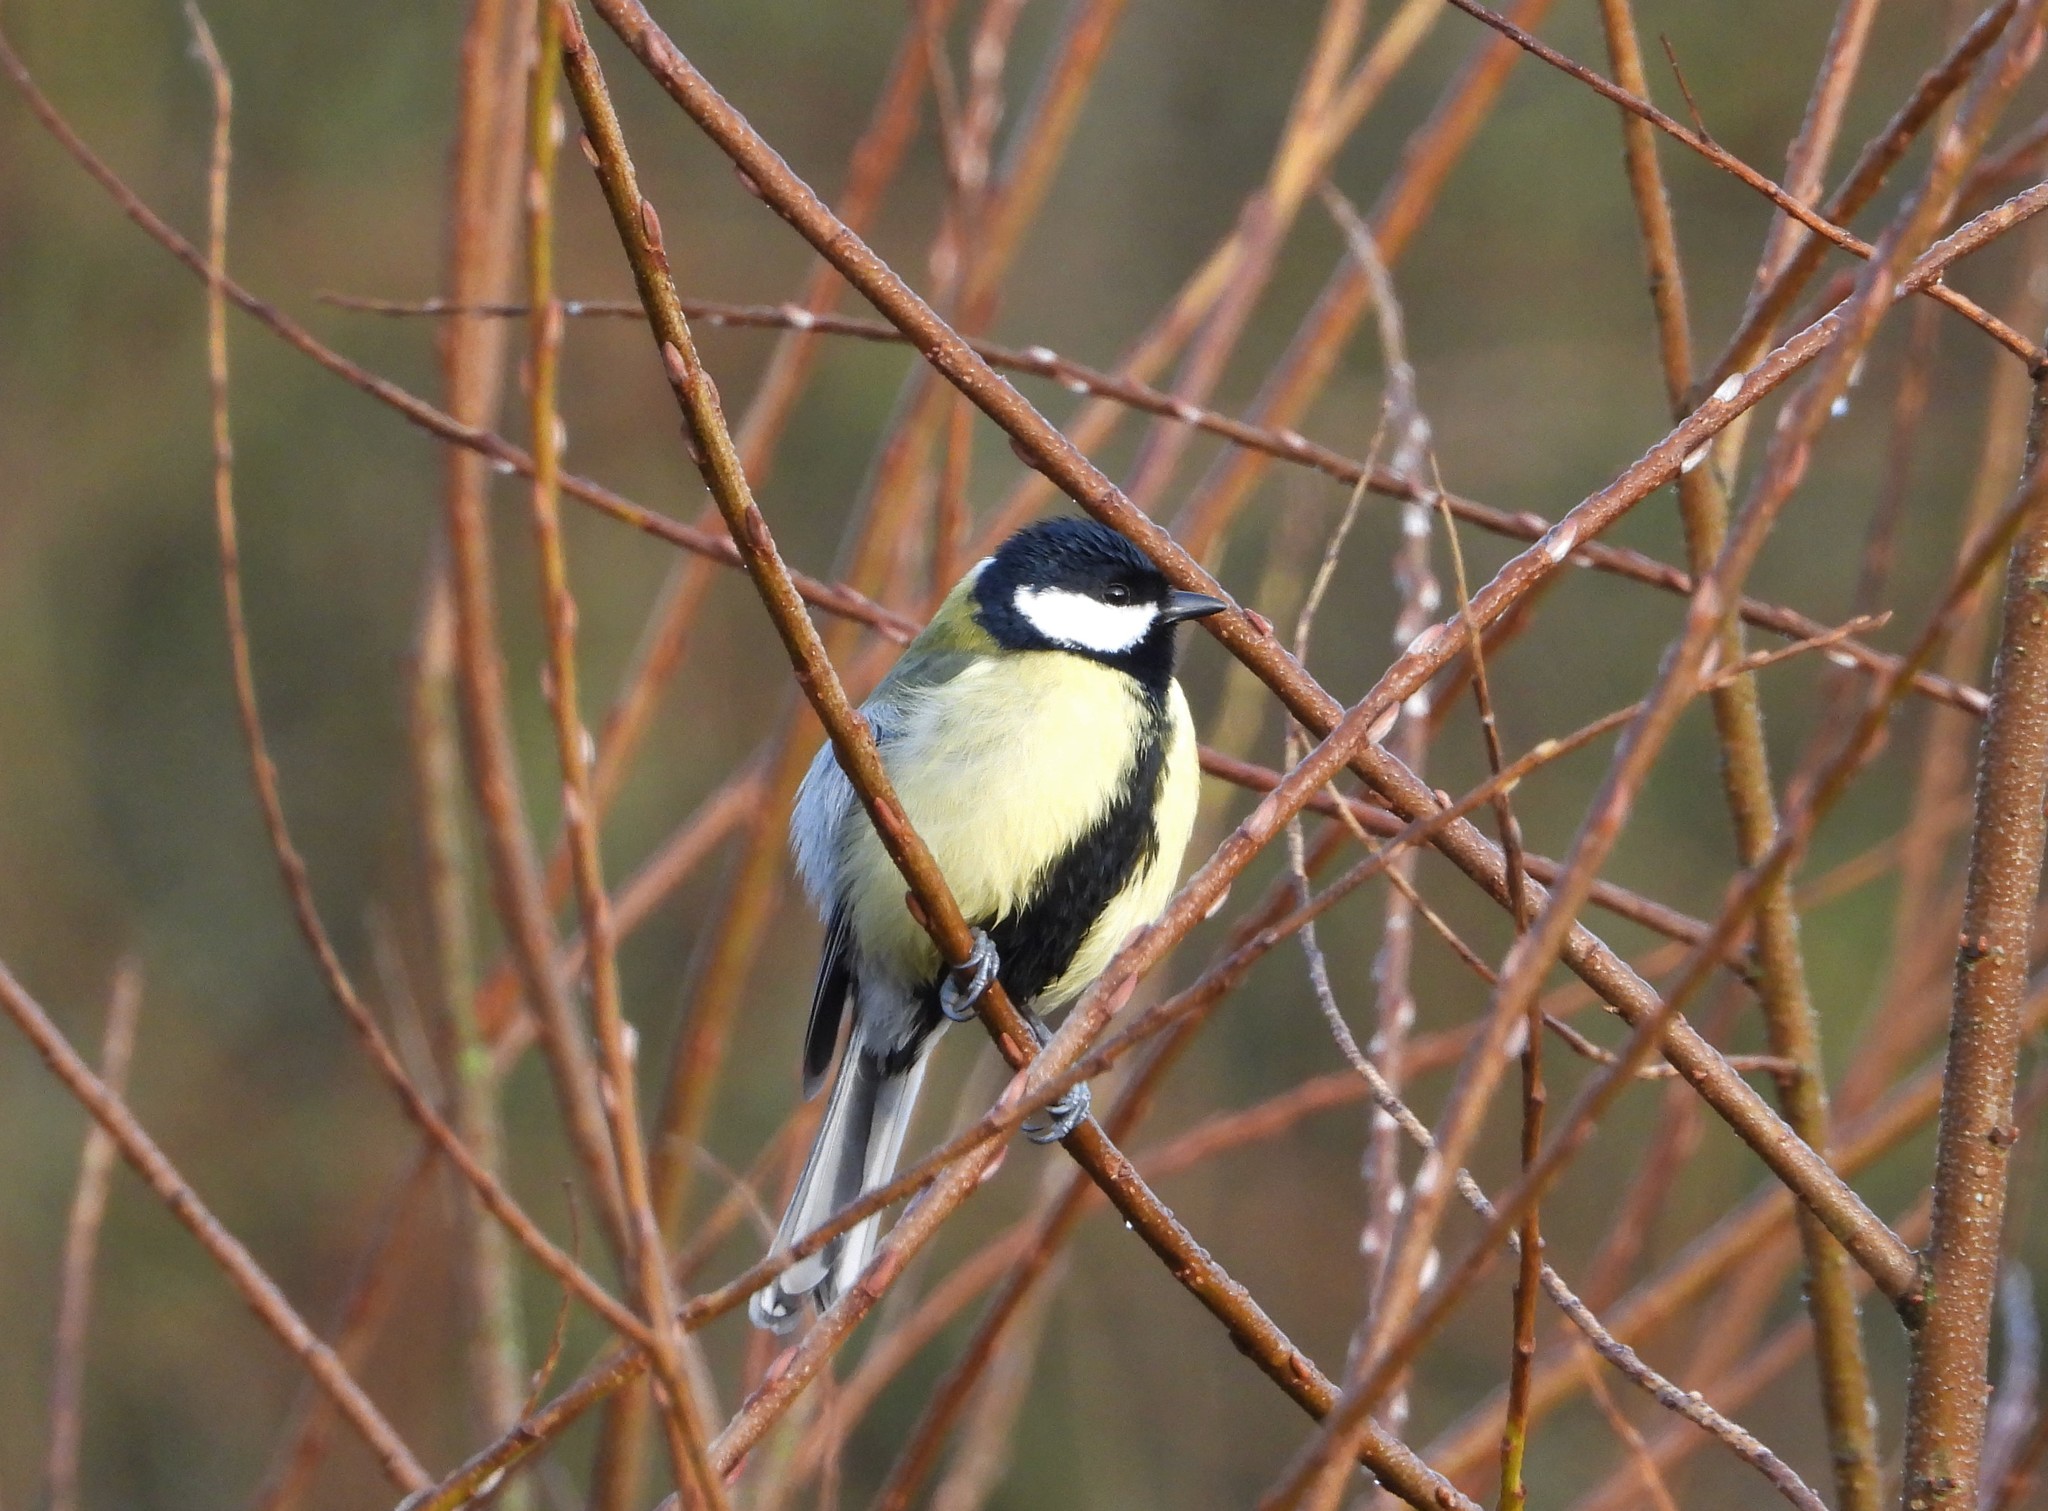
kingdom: Animalia
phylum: Chordata
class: Aves
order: Passeriformes
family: Paridae
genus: Parus
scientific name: Parus major
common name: Great tit
